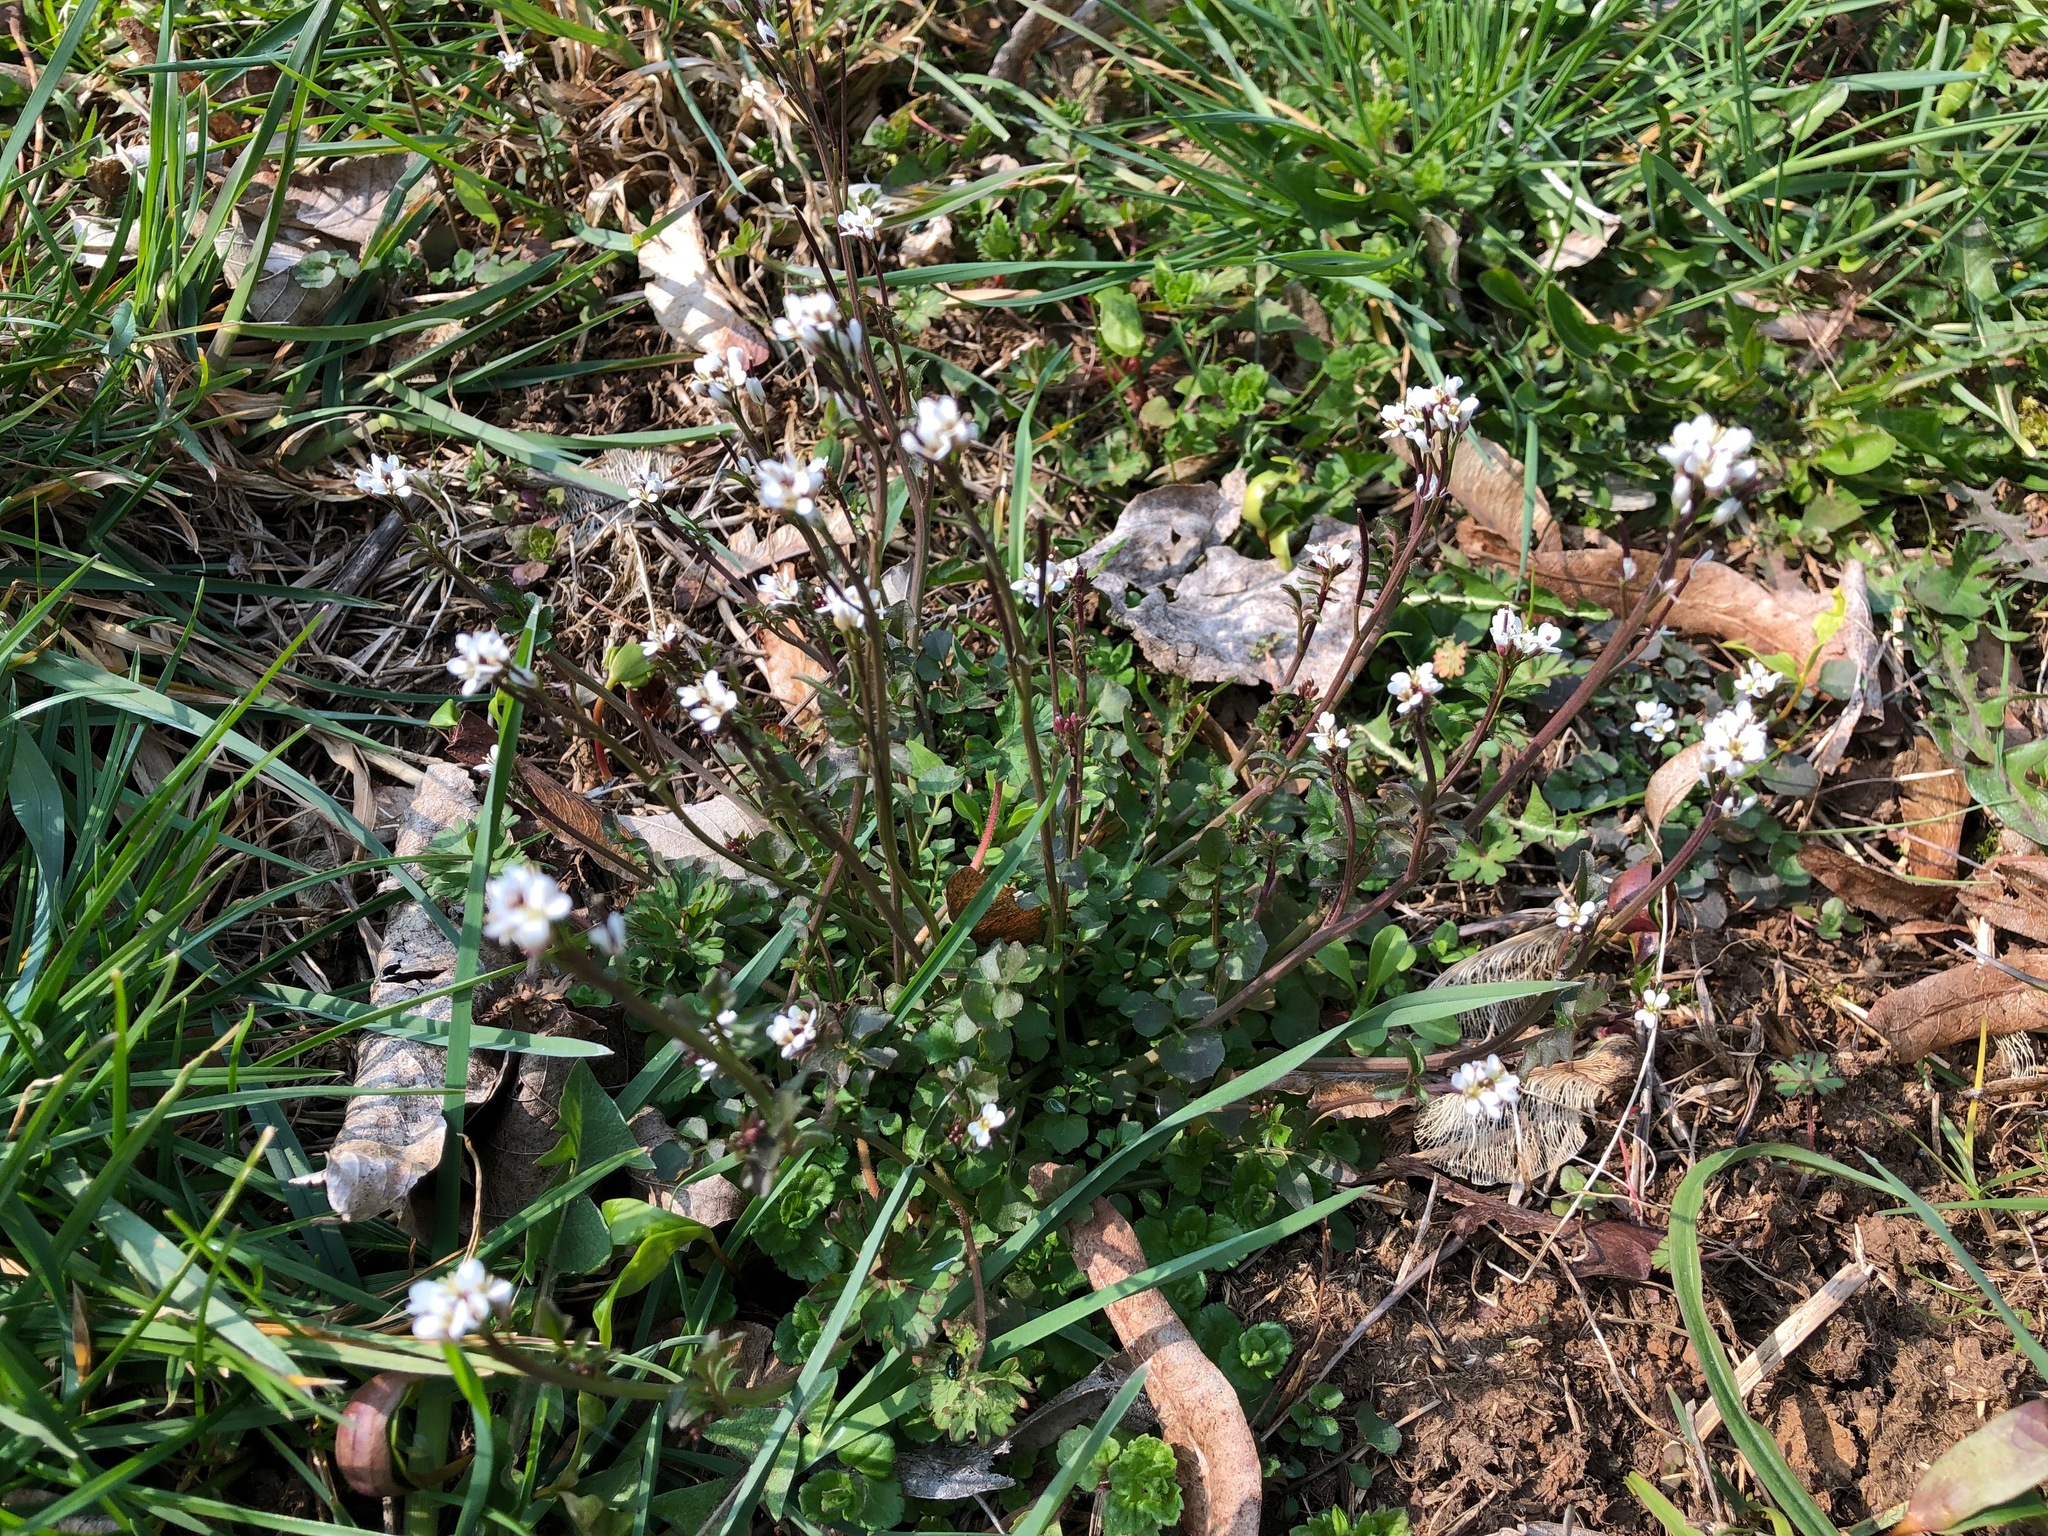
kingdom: Plantae
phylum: Tracheophyta
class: Magnoliopsida
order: Brassicales
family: Brassicaceae
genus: Cardamine
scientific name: Cardamine hirsuta
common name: Hairy bittercress
